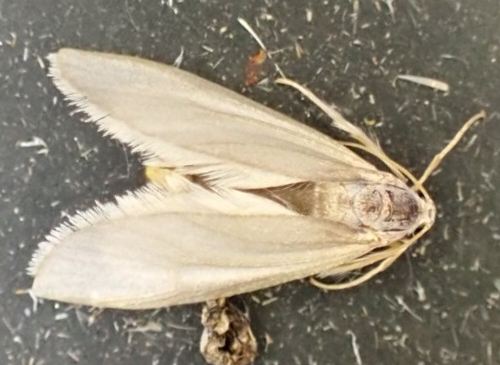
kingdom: Animalia
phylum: Arthropoda
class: Insecta
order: Lepidoptera
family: Crambidae
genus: Acentria
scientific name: Acentria ephemerella
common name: European water moth
